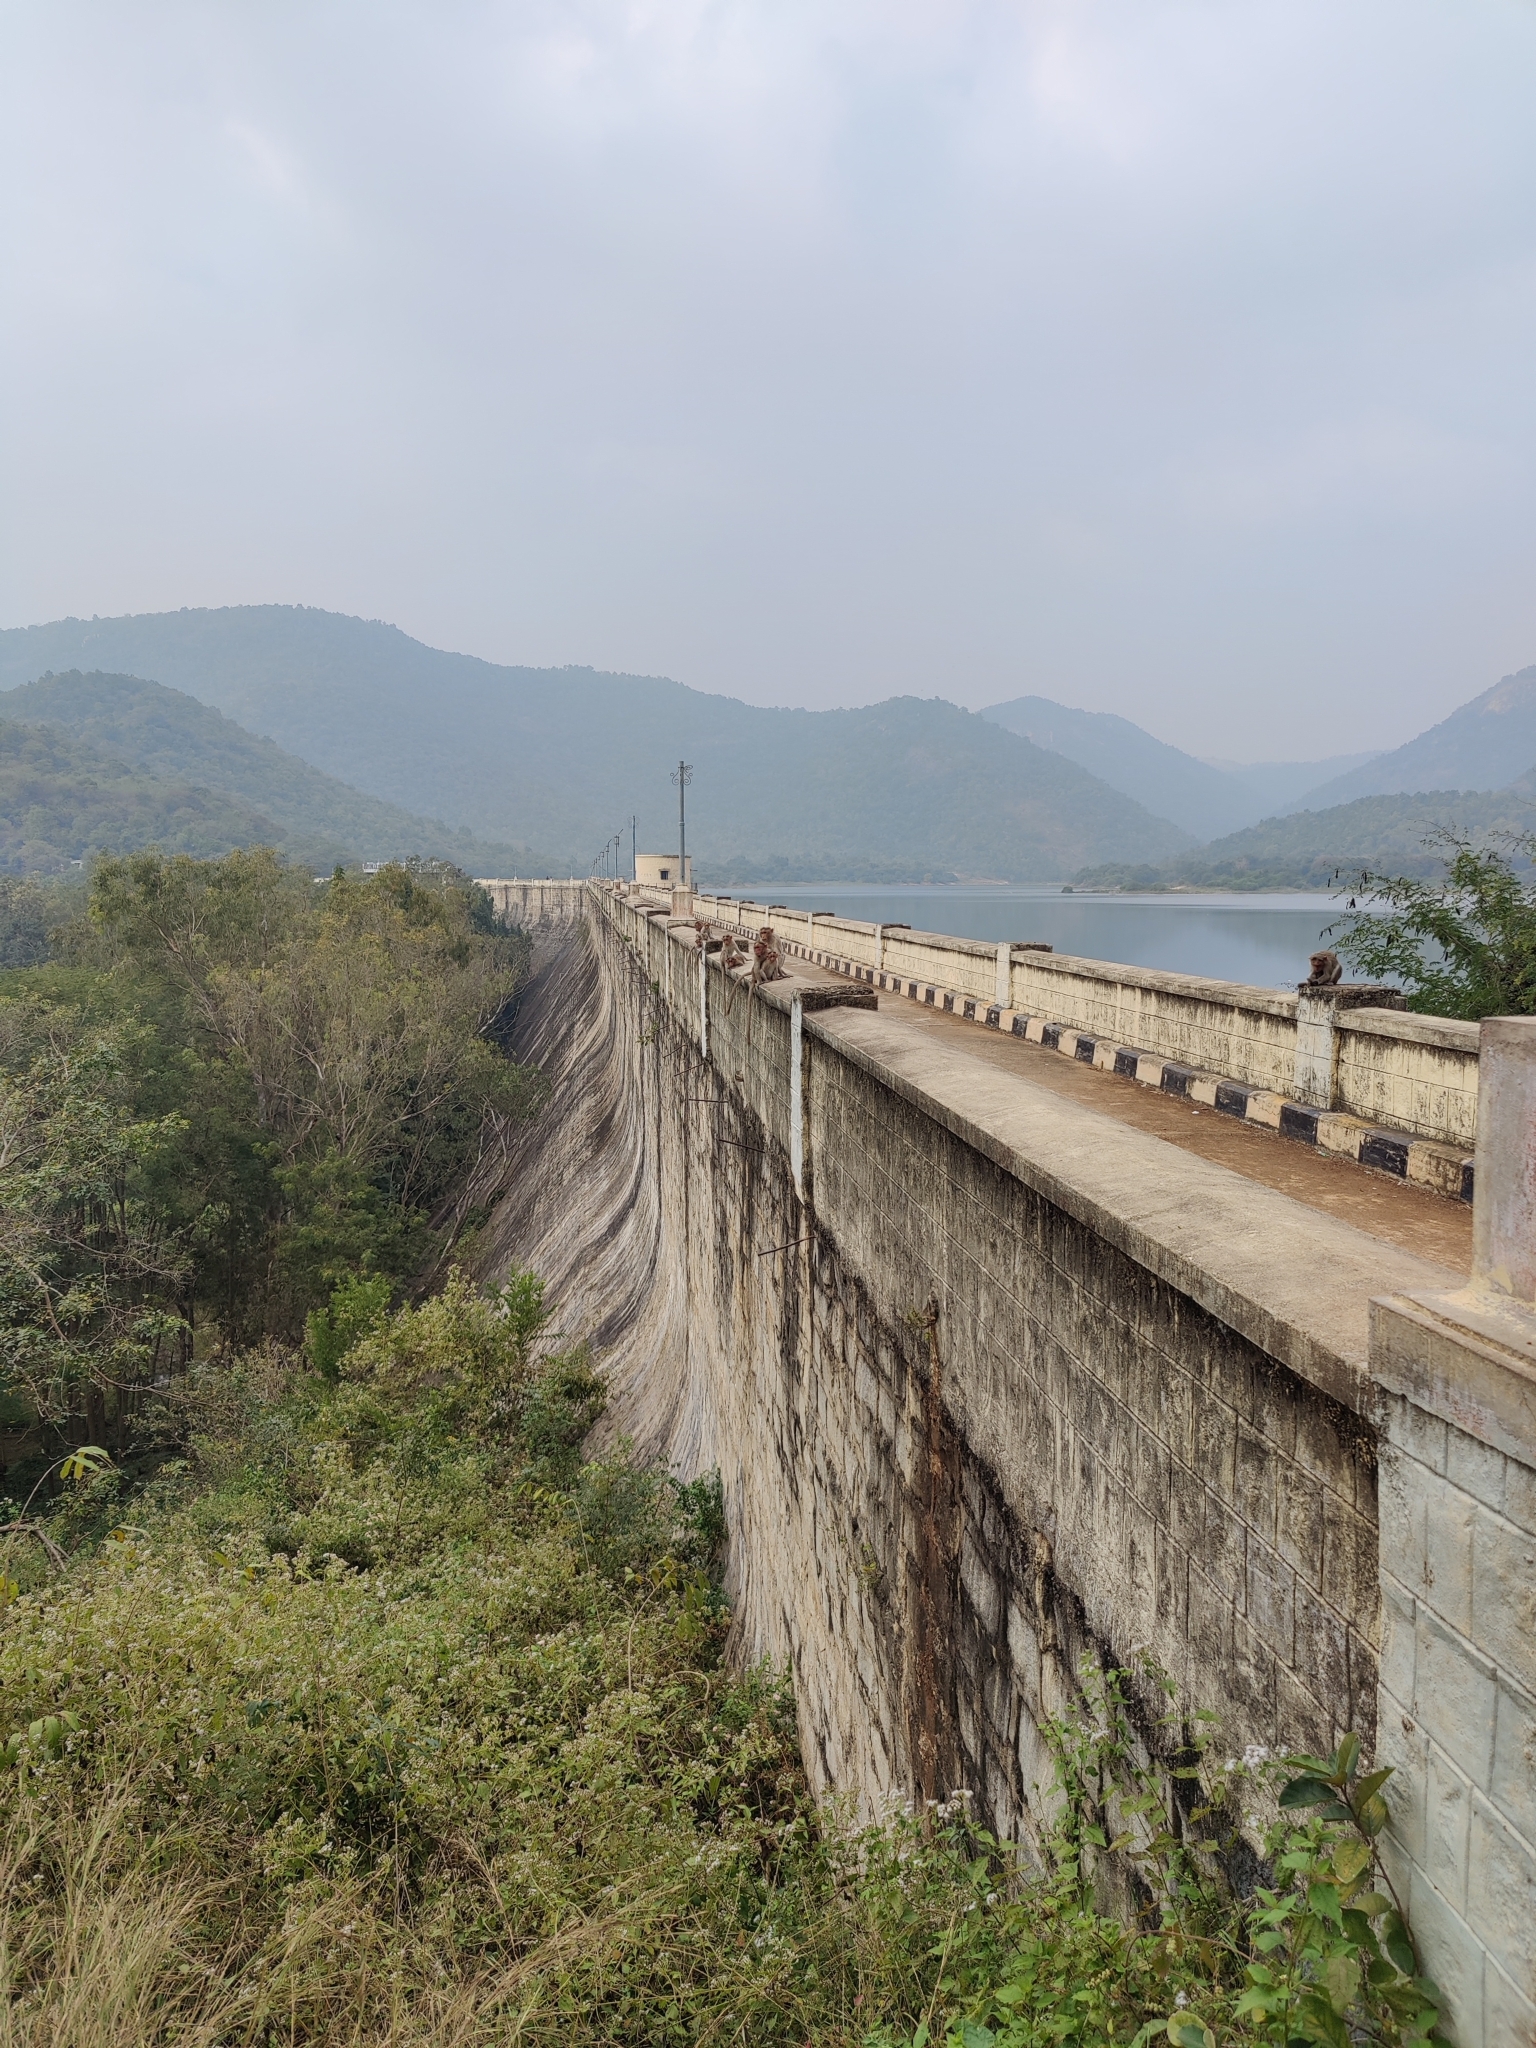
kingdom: Animalia
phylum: Chordata
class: Mammalia
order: Primates
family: Cercopithecidae
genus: Macaca
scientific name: Macaca radiata
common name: Bonnet macaque
